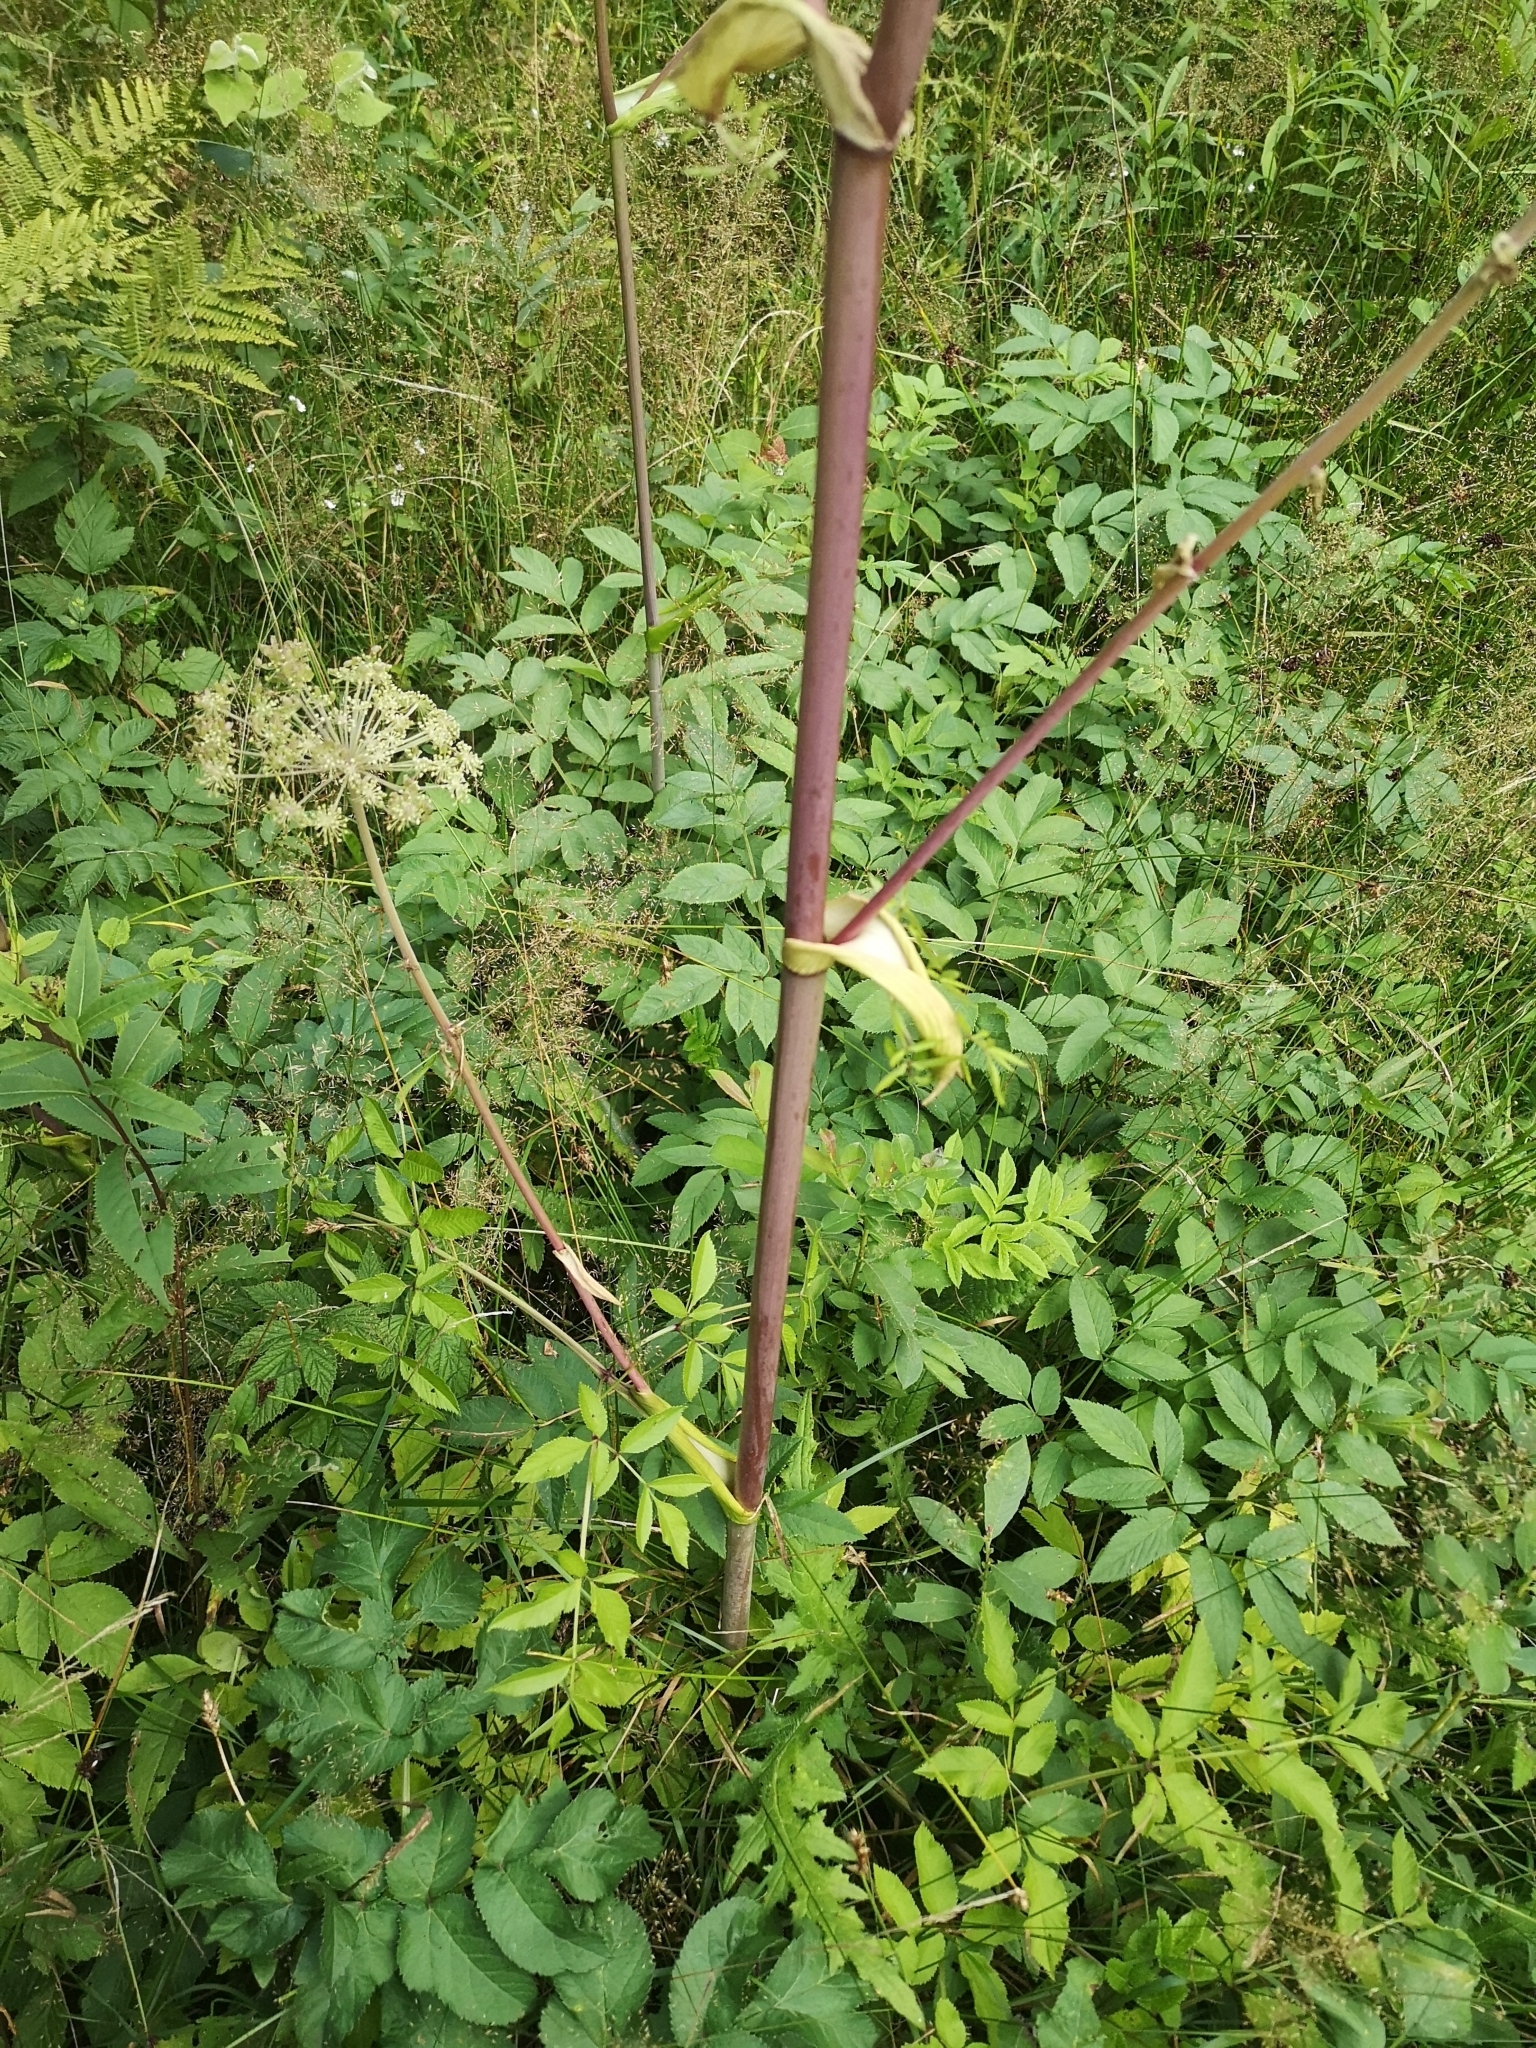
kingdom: Plantae
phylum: Tracheophyta
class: Magnoliopsida
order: Apiales
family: Apiaceae
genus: Angelica
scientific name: Angelica sylvestris
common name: Wild angelica
